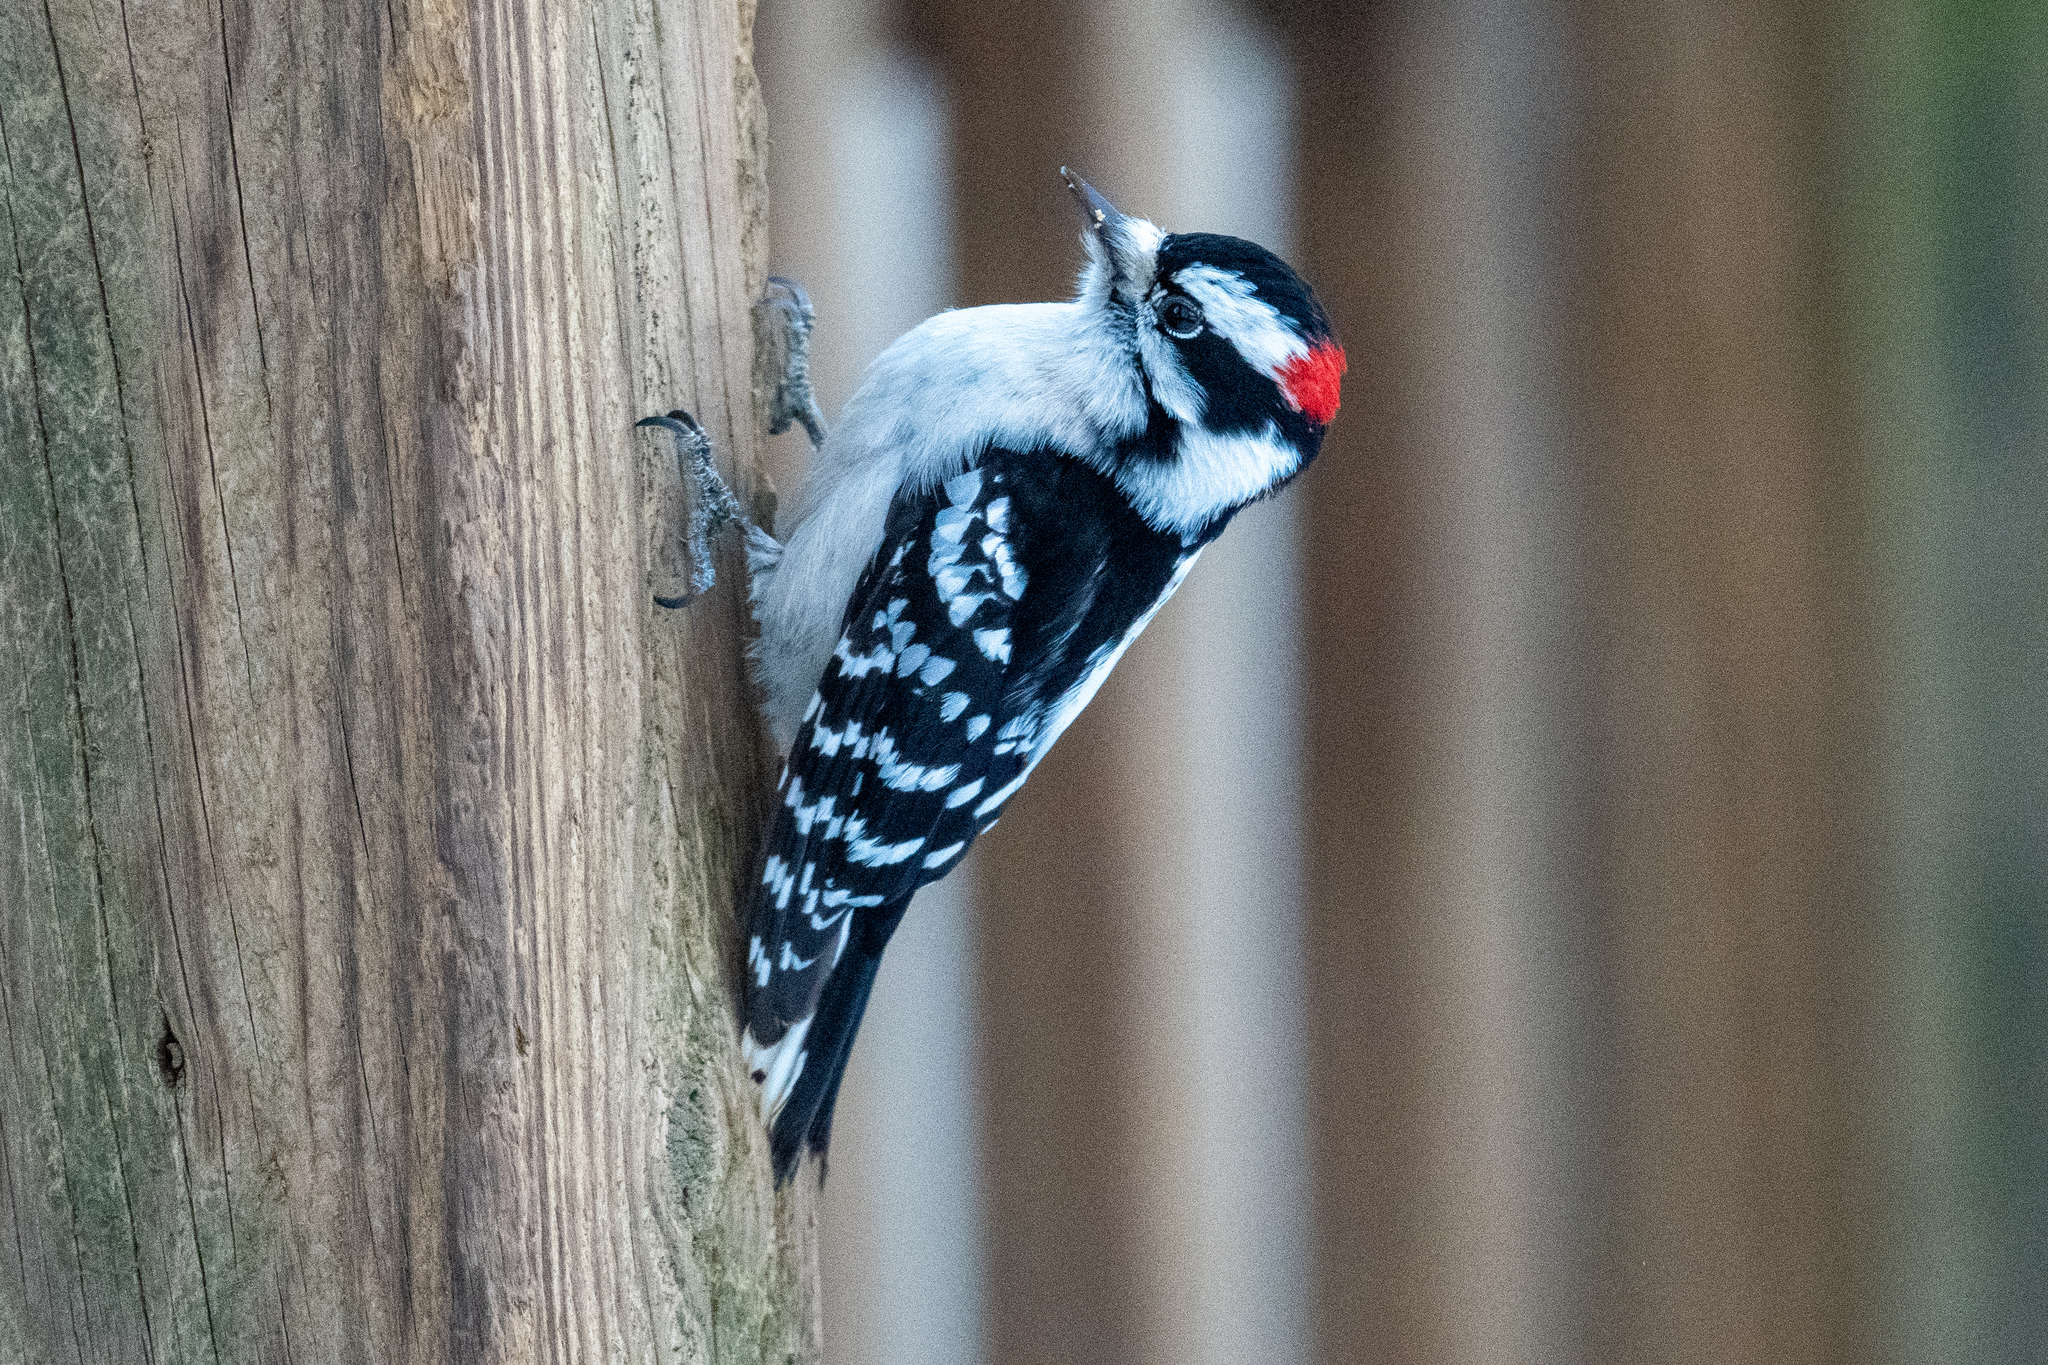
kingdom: Animalia
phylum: Chordata
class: Aves
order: Piciformes
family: Picidae
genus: Dryobates
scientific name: Dryobates pubescens
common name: Downy woodpecker
